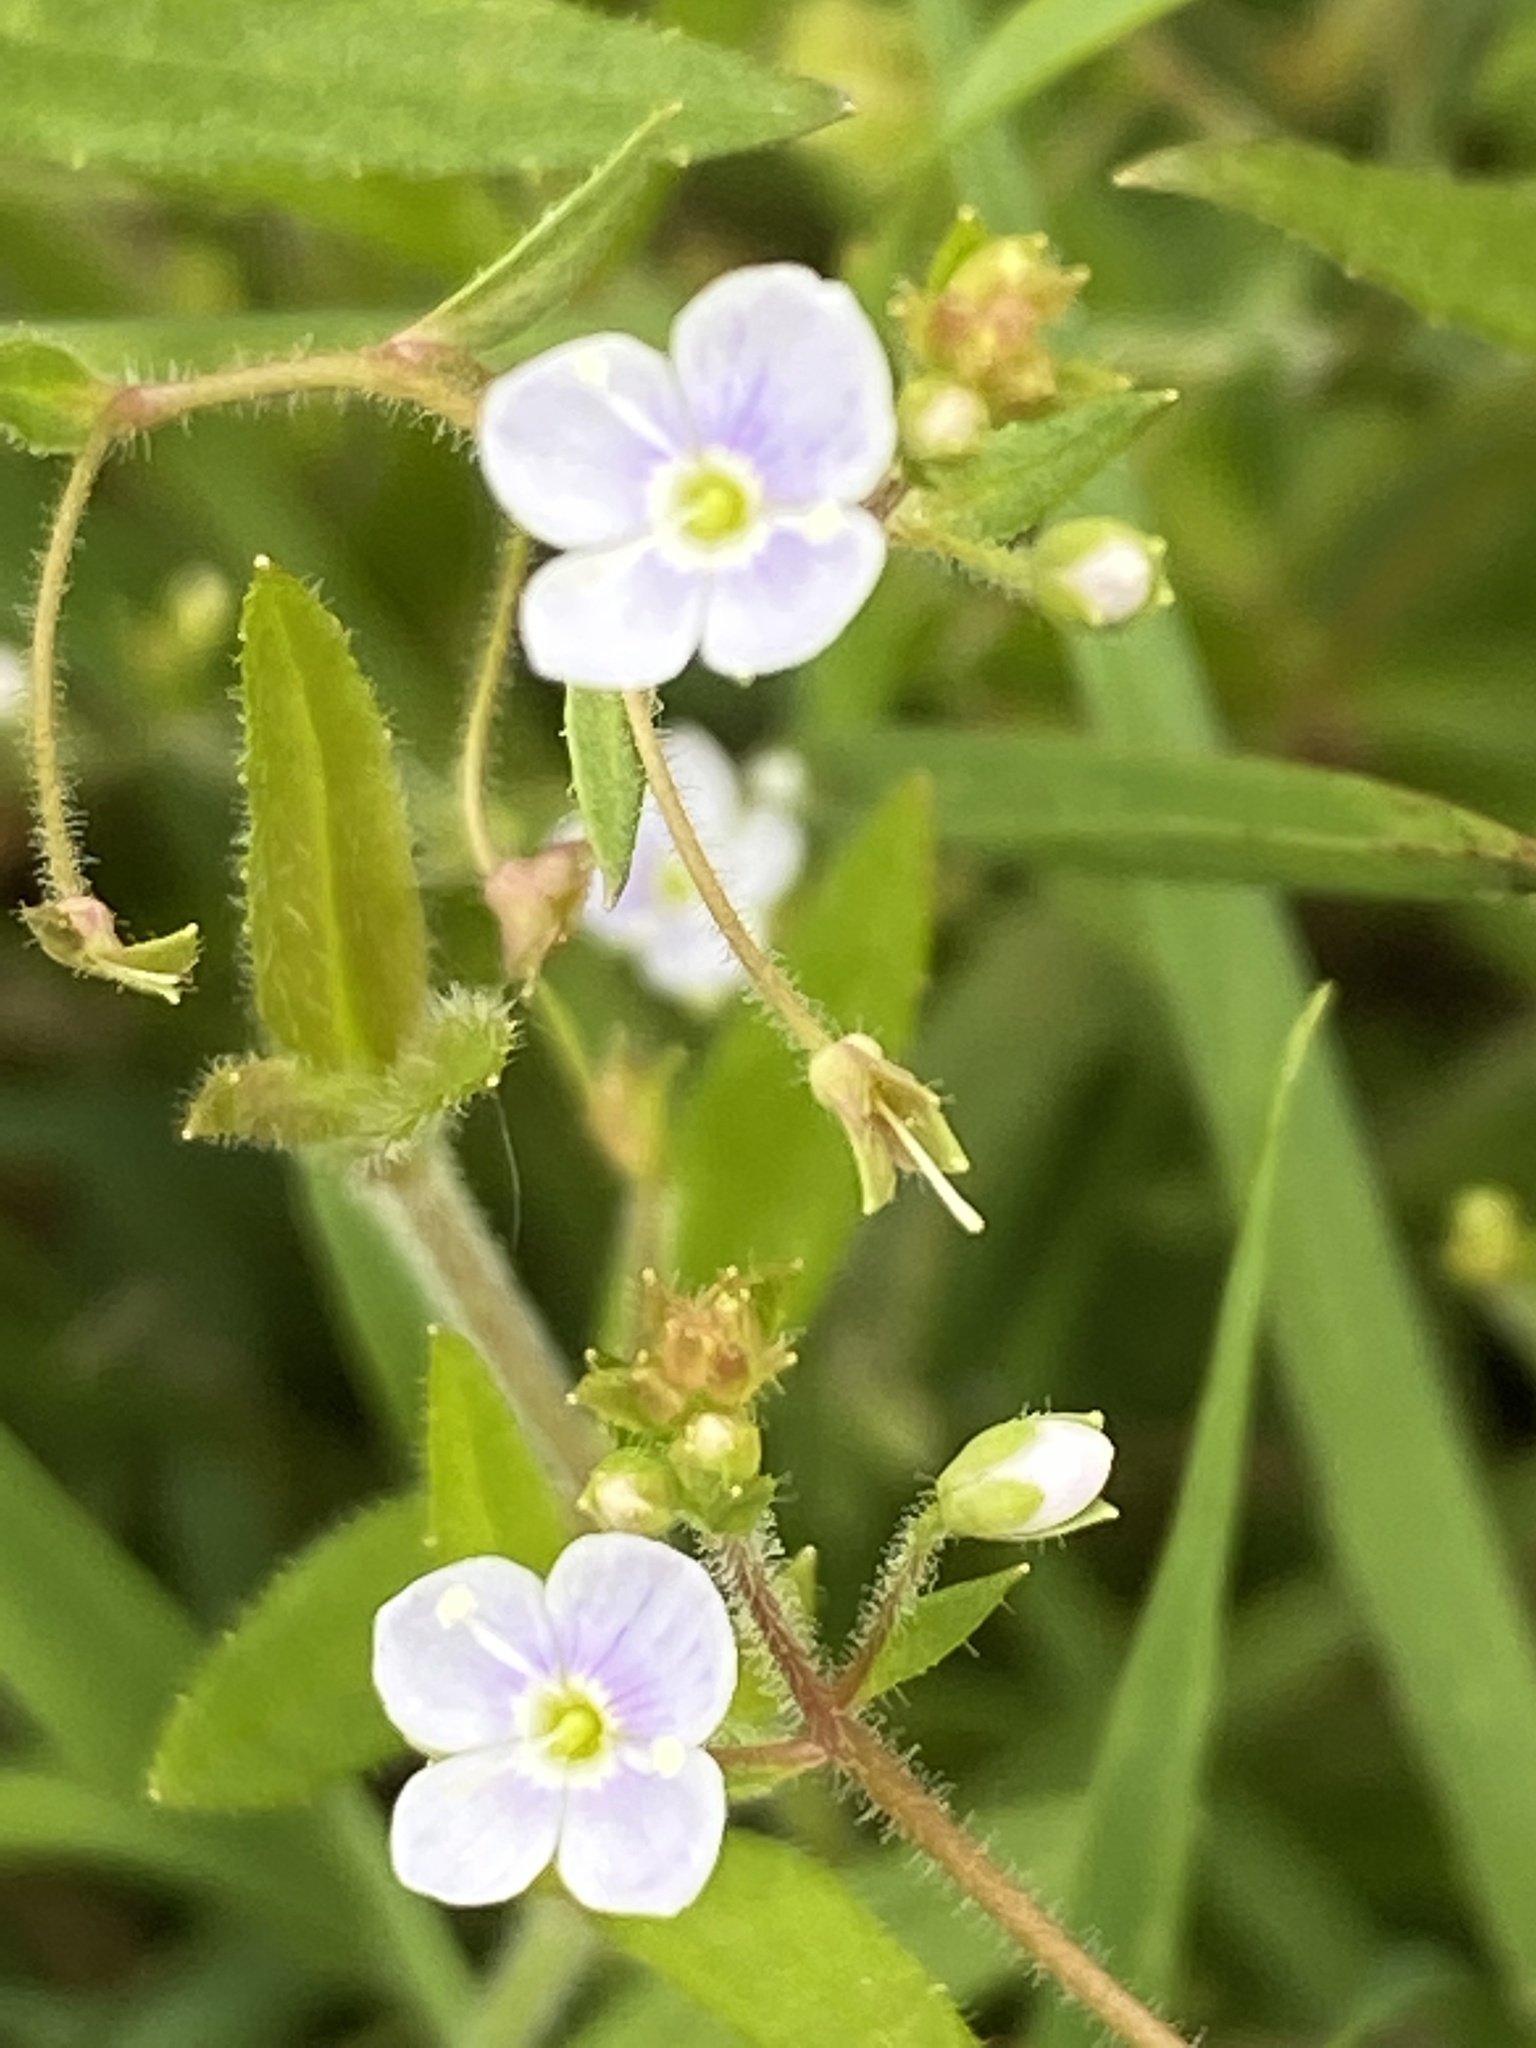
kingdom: Plantae
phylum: Tracheophyta
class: Magnoliopsida
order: Lamiales
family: Plantaginaceae
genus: Veronica
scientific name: Veronica scutellata
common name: Marsh speedwell
